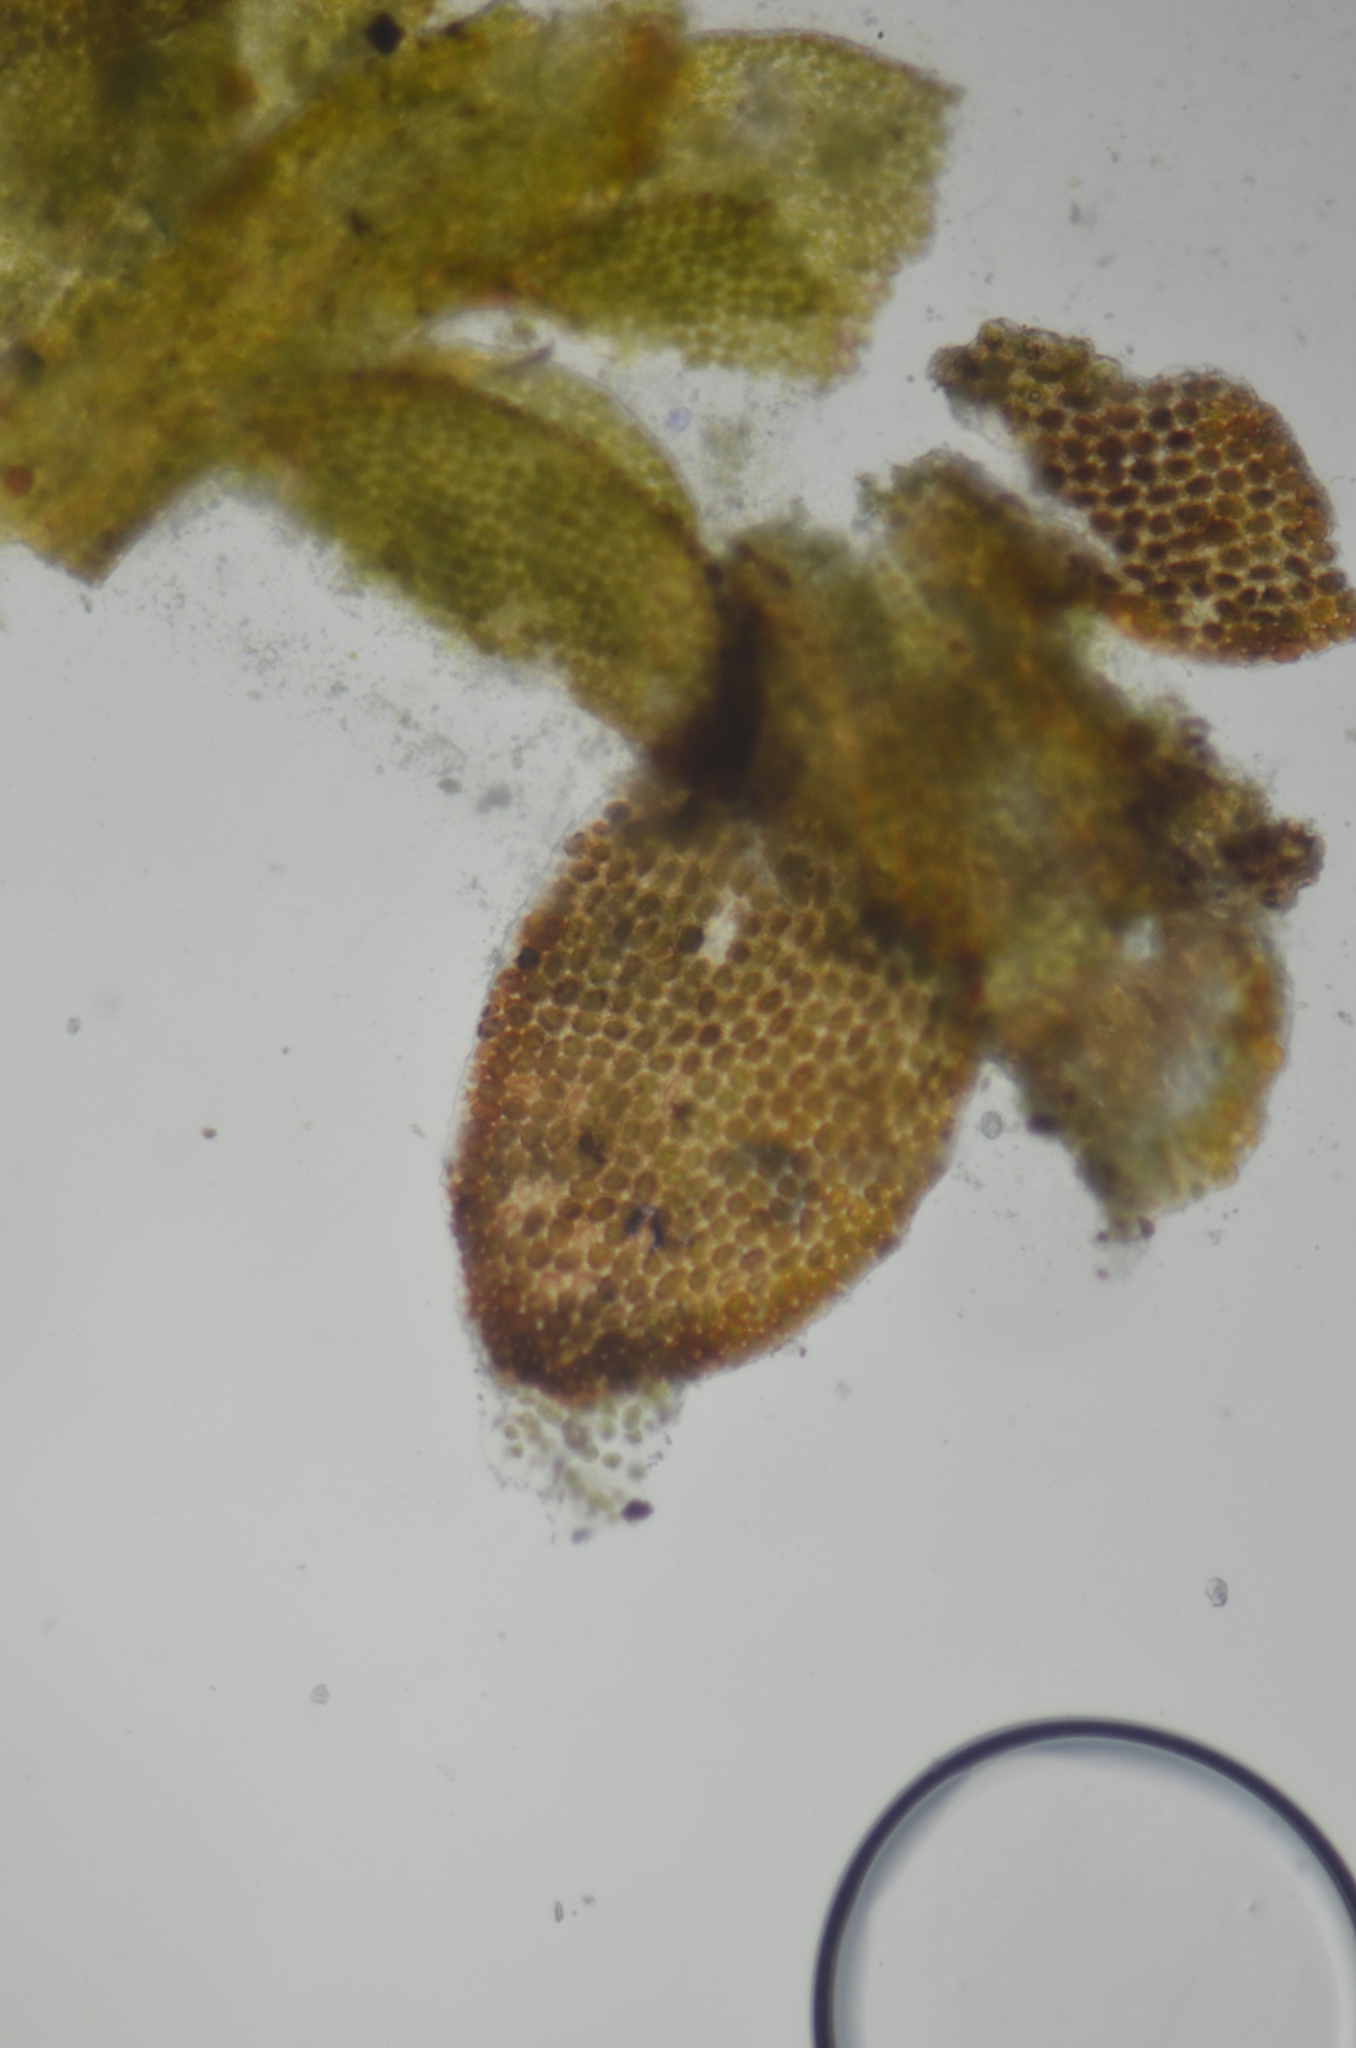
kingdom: Plantae
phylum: Marchantiophyta
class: Jungermanniopsida
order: Jungermanniales
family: Cephaloziaceae
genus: Odontoschisma
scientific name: Odontoschisma elongatum
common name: Brown flapwort
